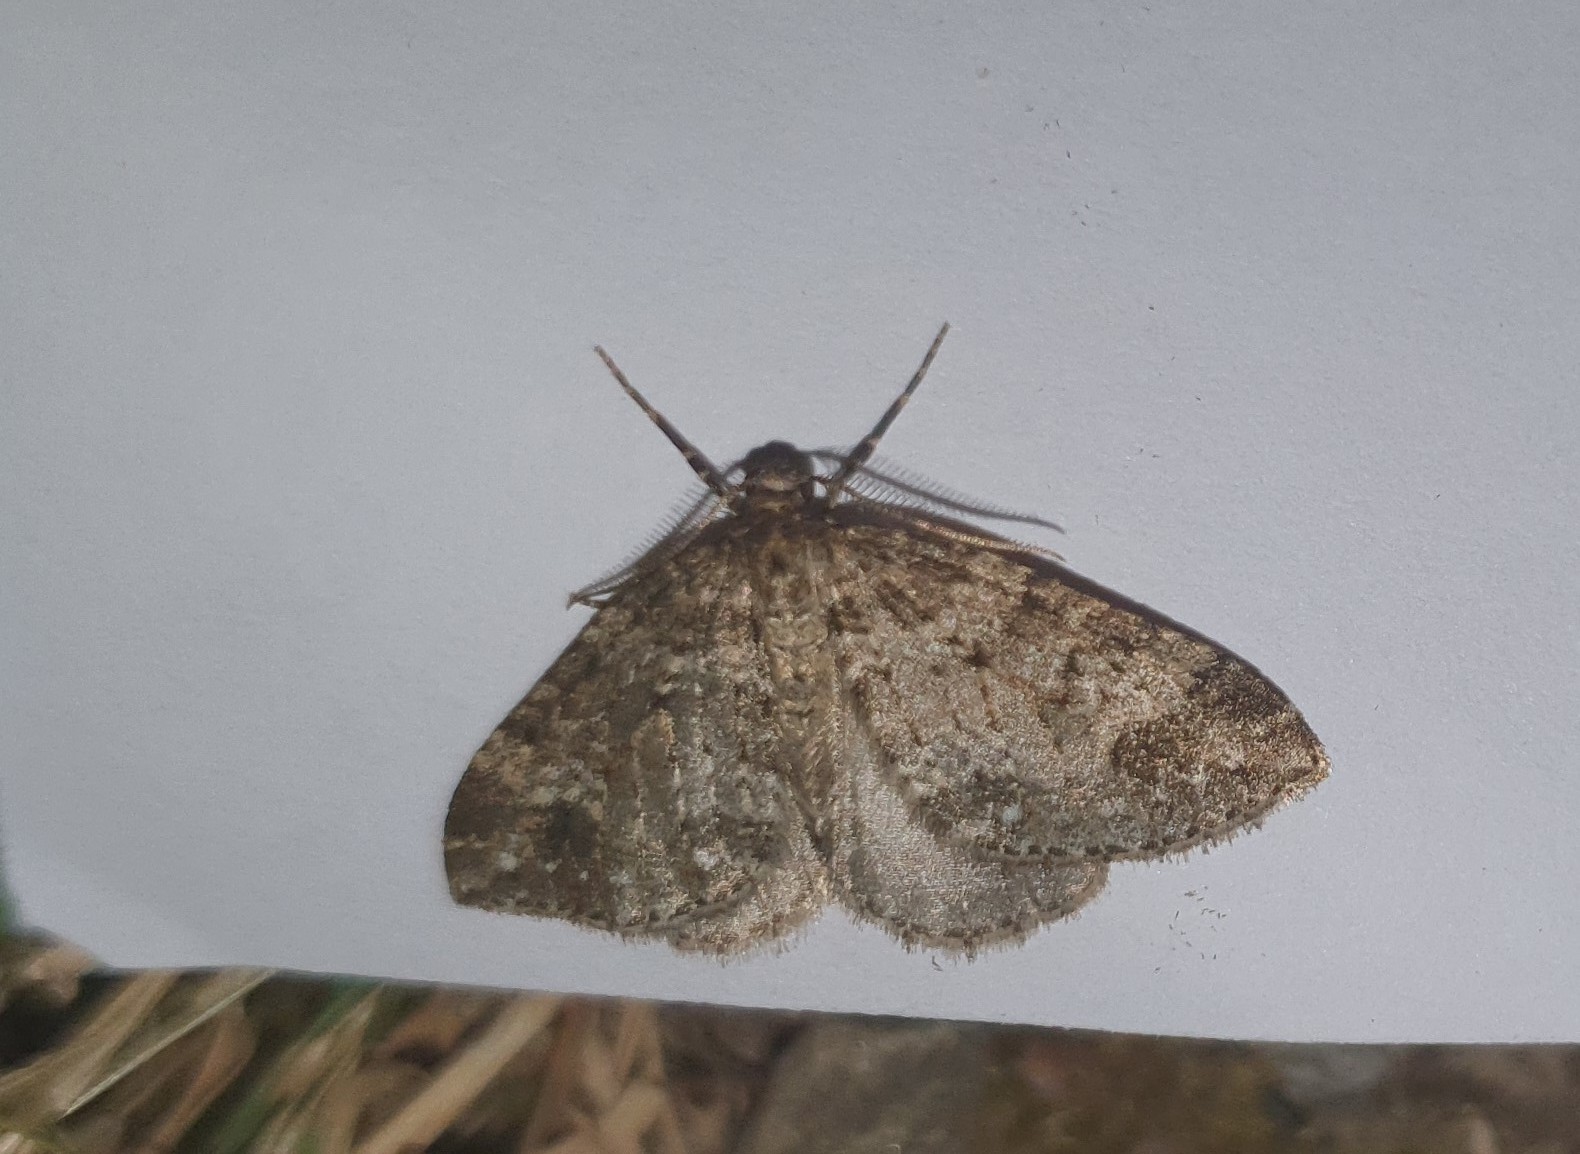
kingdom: Animalia
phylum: Arthropoda
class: Insecta
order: Lepidoptera
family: Geometridae
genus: Perizoma
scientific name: Perizoma didymata
